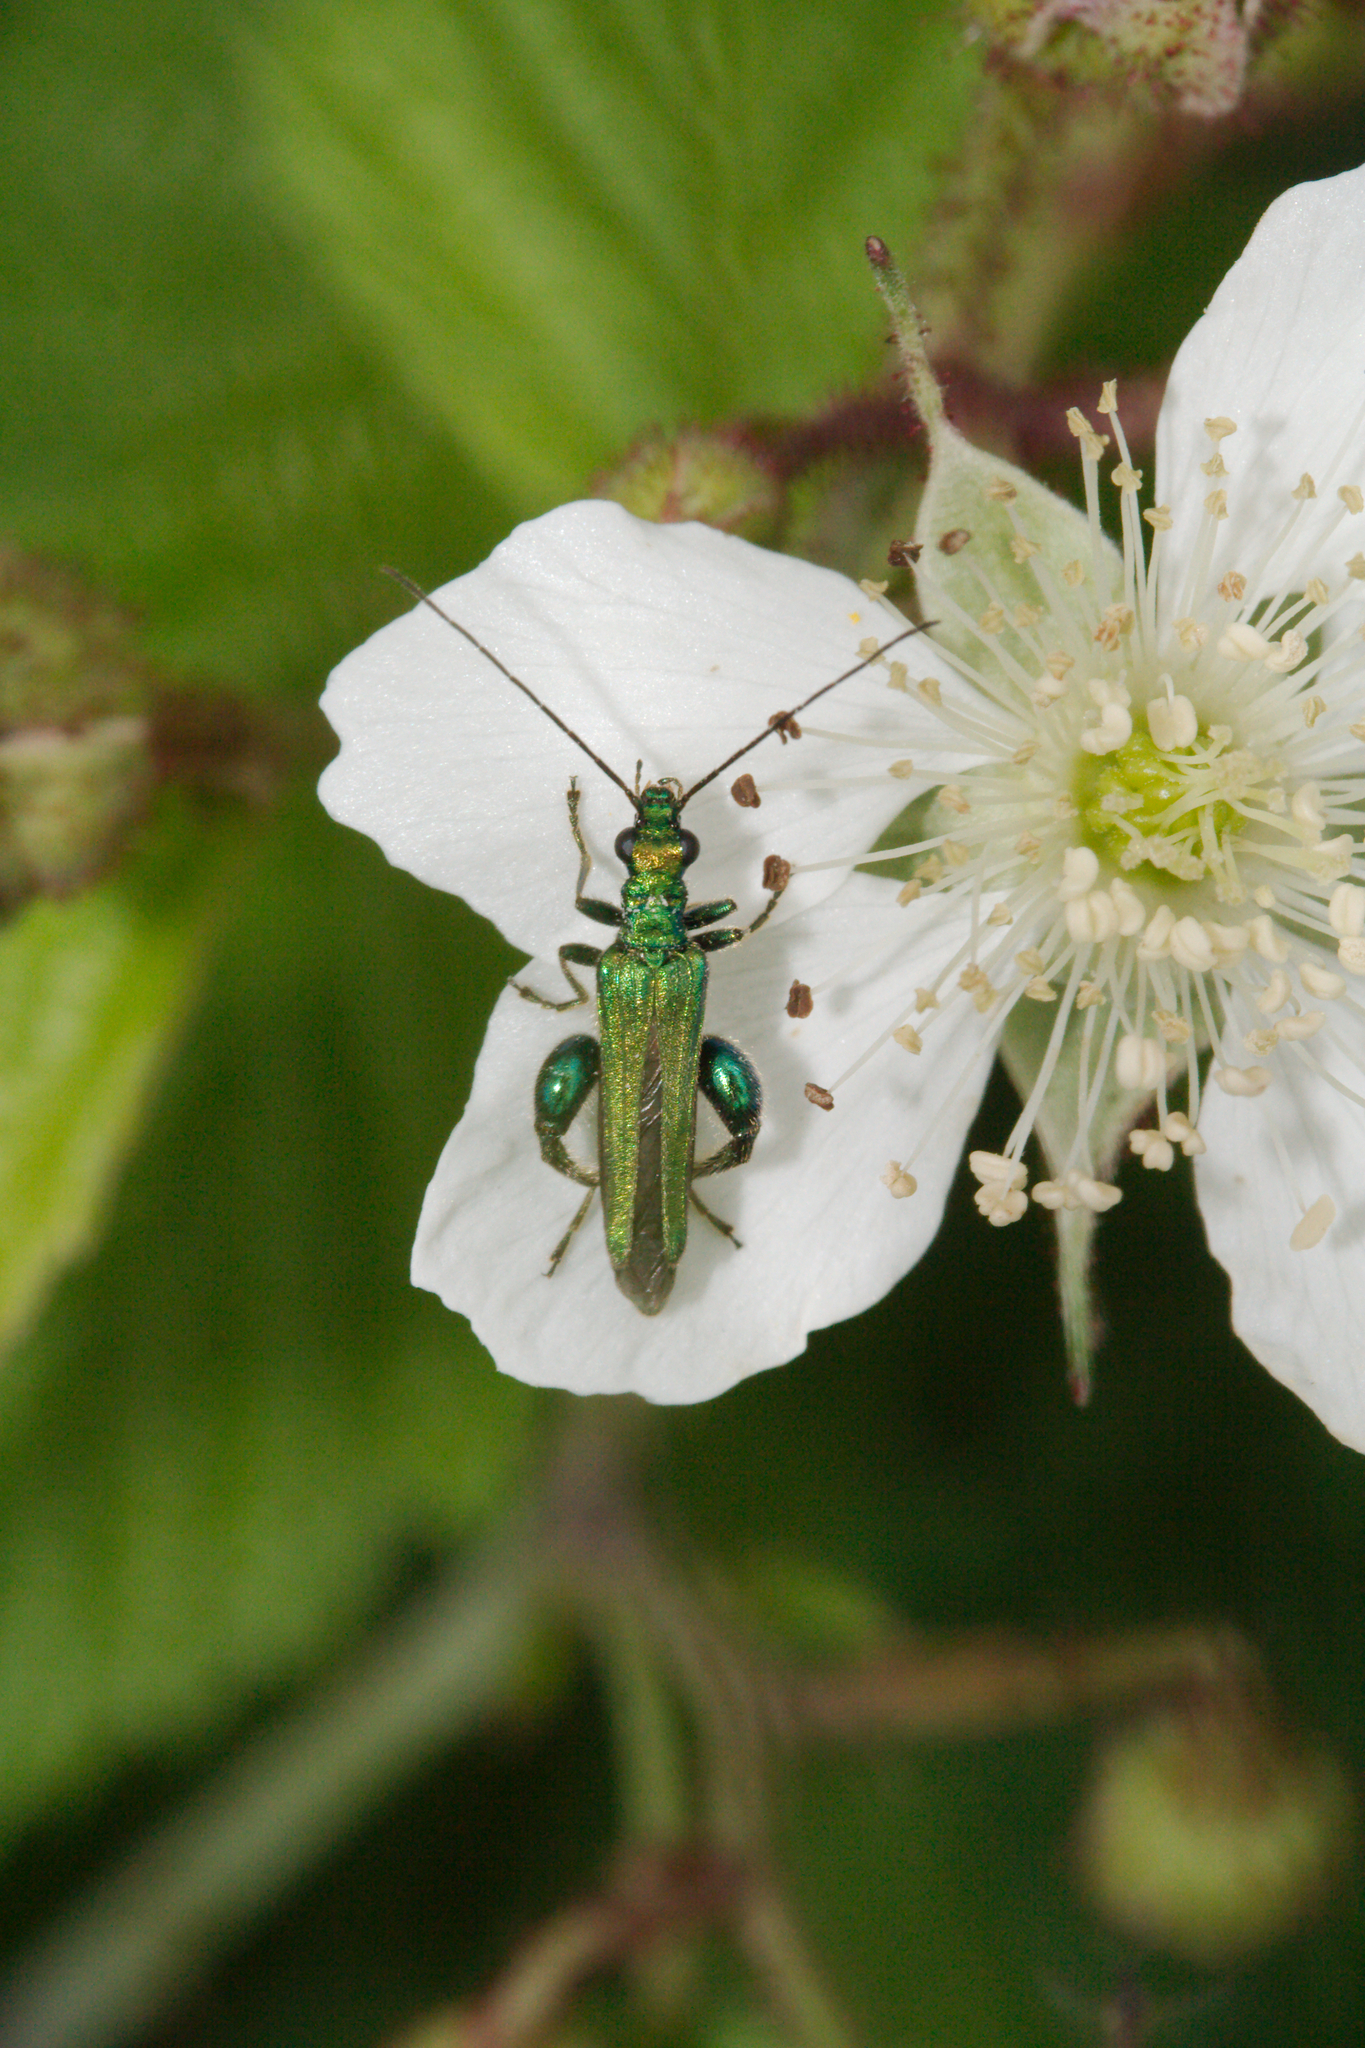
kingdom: Animalia
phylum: Arthropoda
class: Insecta
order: Coleoptera
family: Oedemeridae
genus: Oedemera
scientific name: Oedemera nobilis
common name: Swollen-thighed beetle
